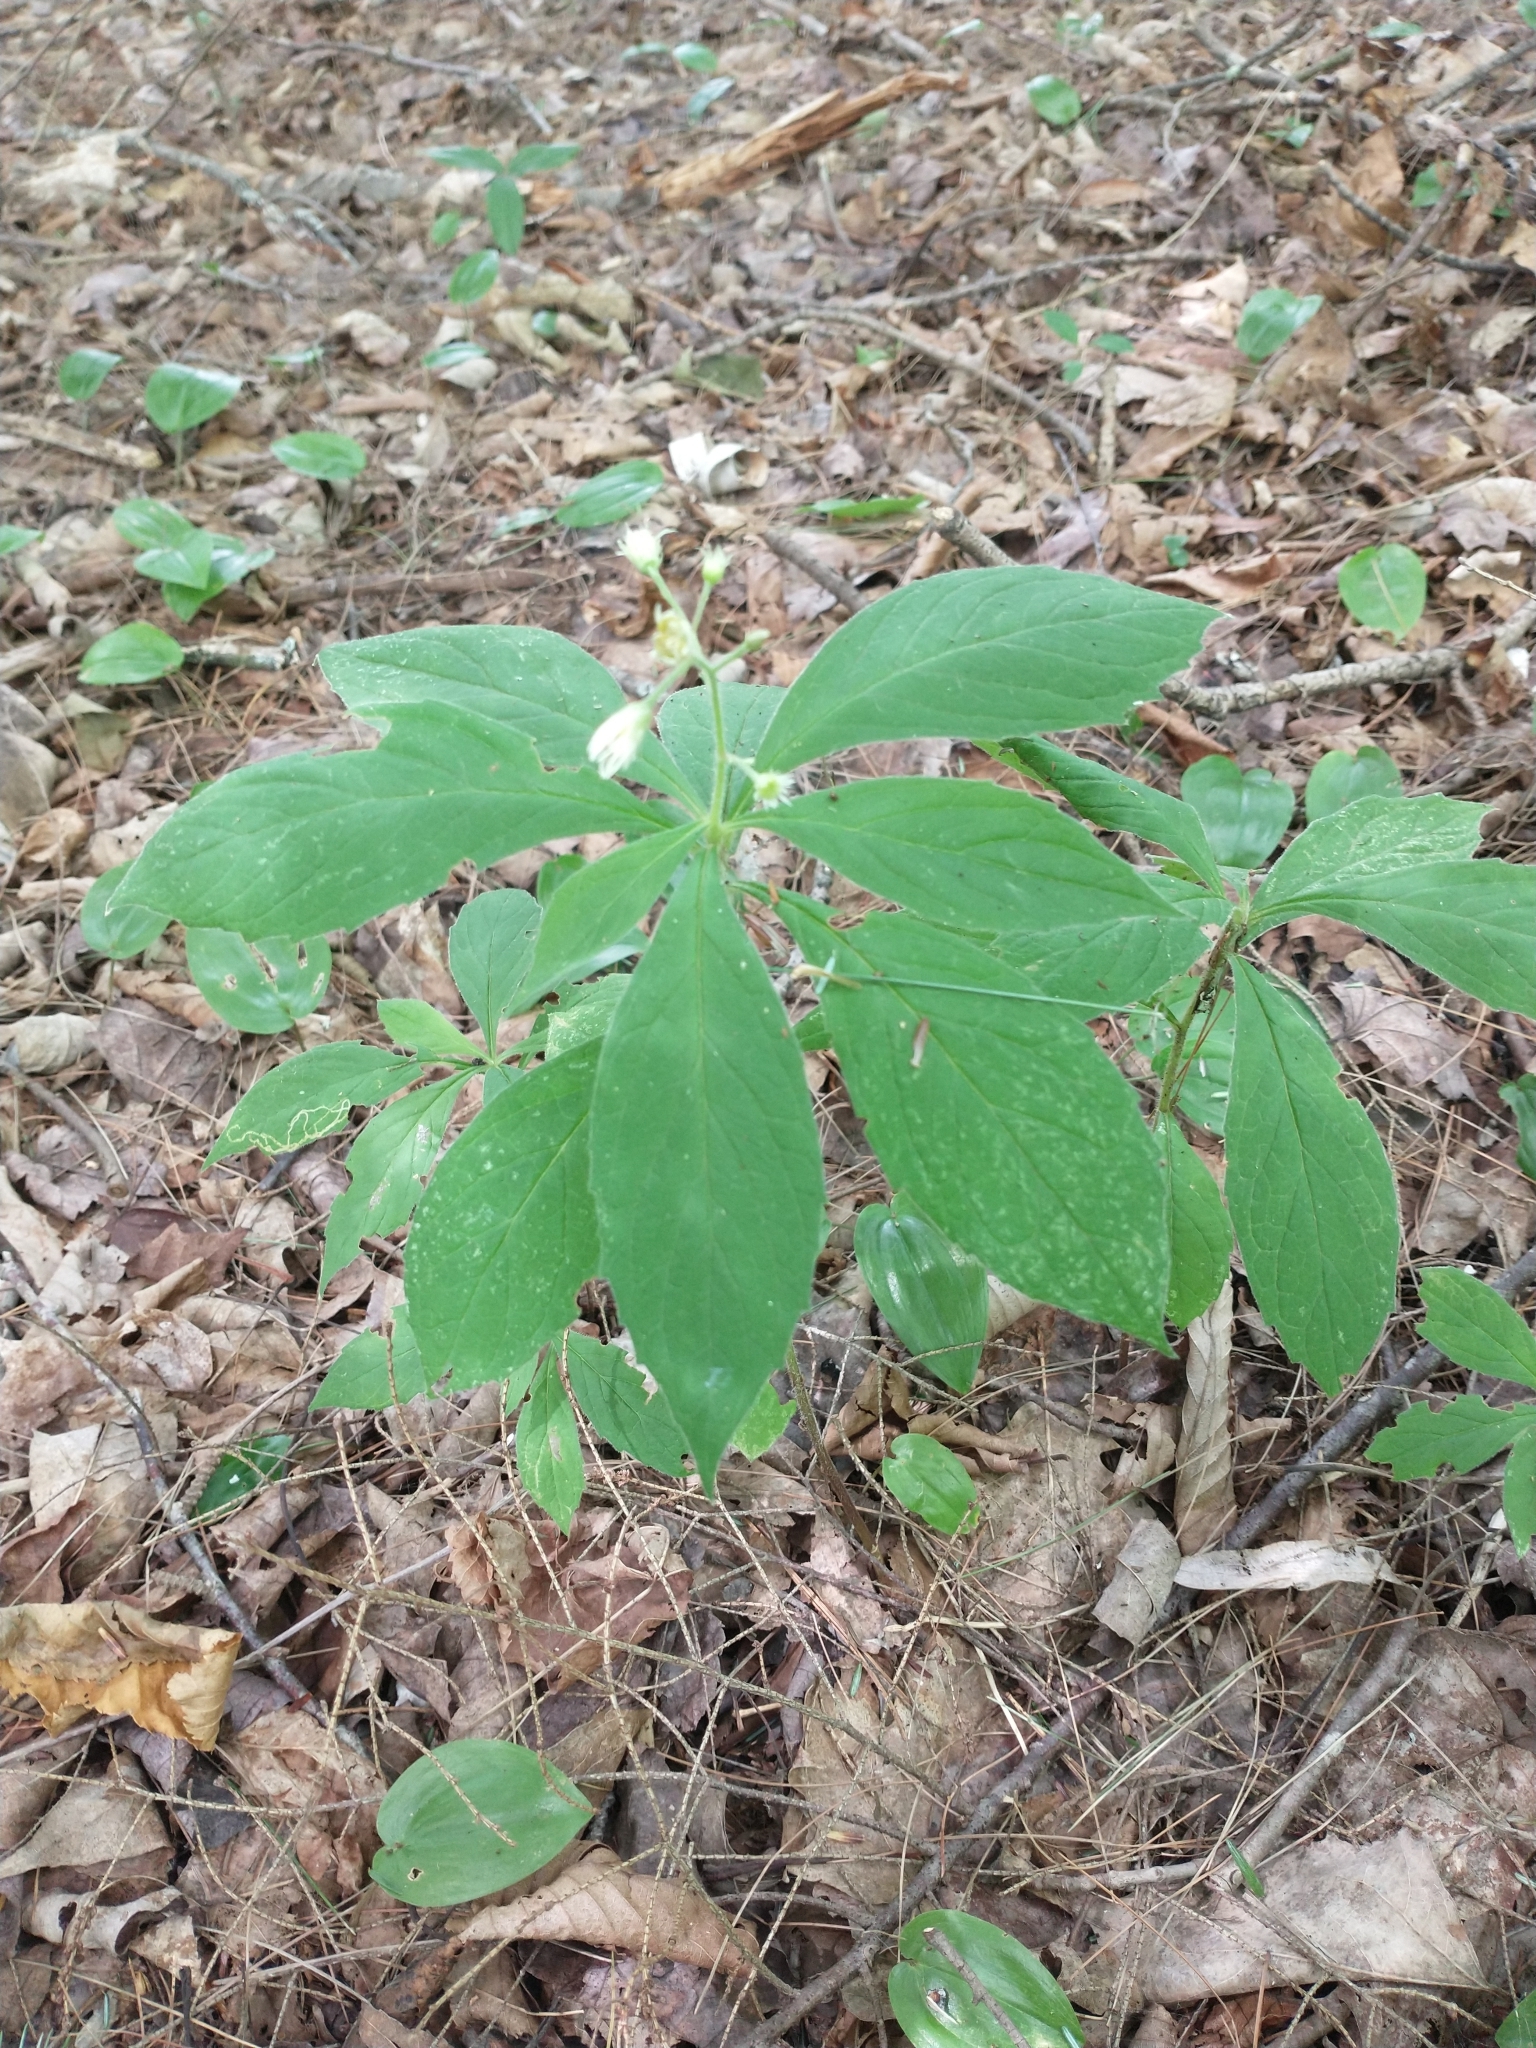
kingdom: Plantae
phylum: Tracheophyta
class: Magnoliopsida
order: Asterales
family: Asteraceae
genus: Oclemena
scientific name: Oclemena acuminata
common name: Mountain aster
